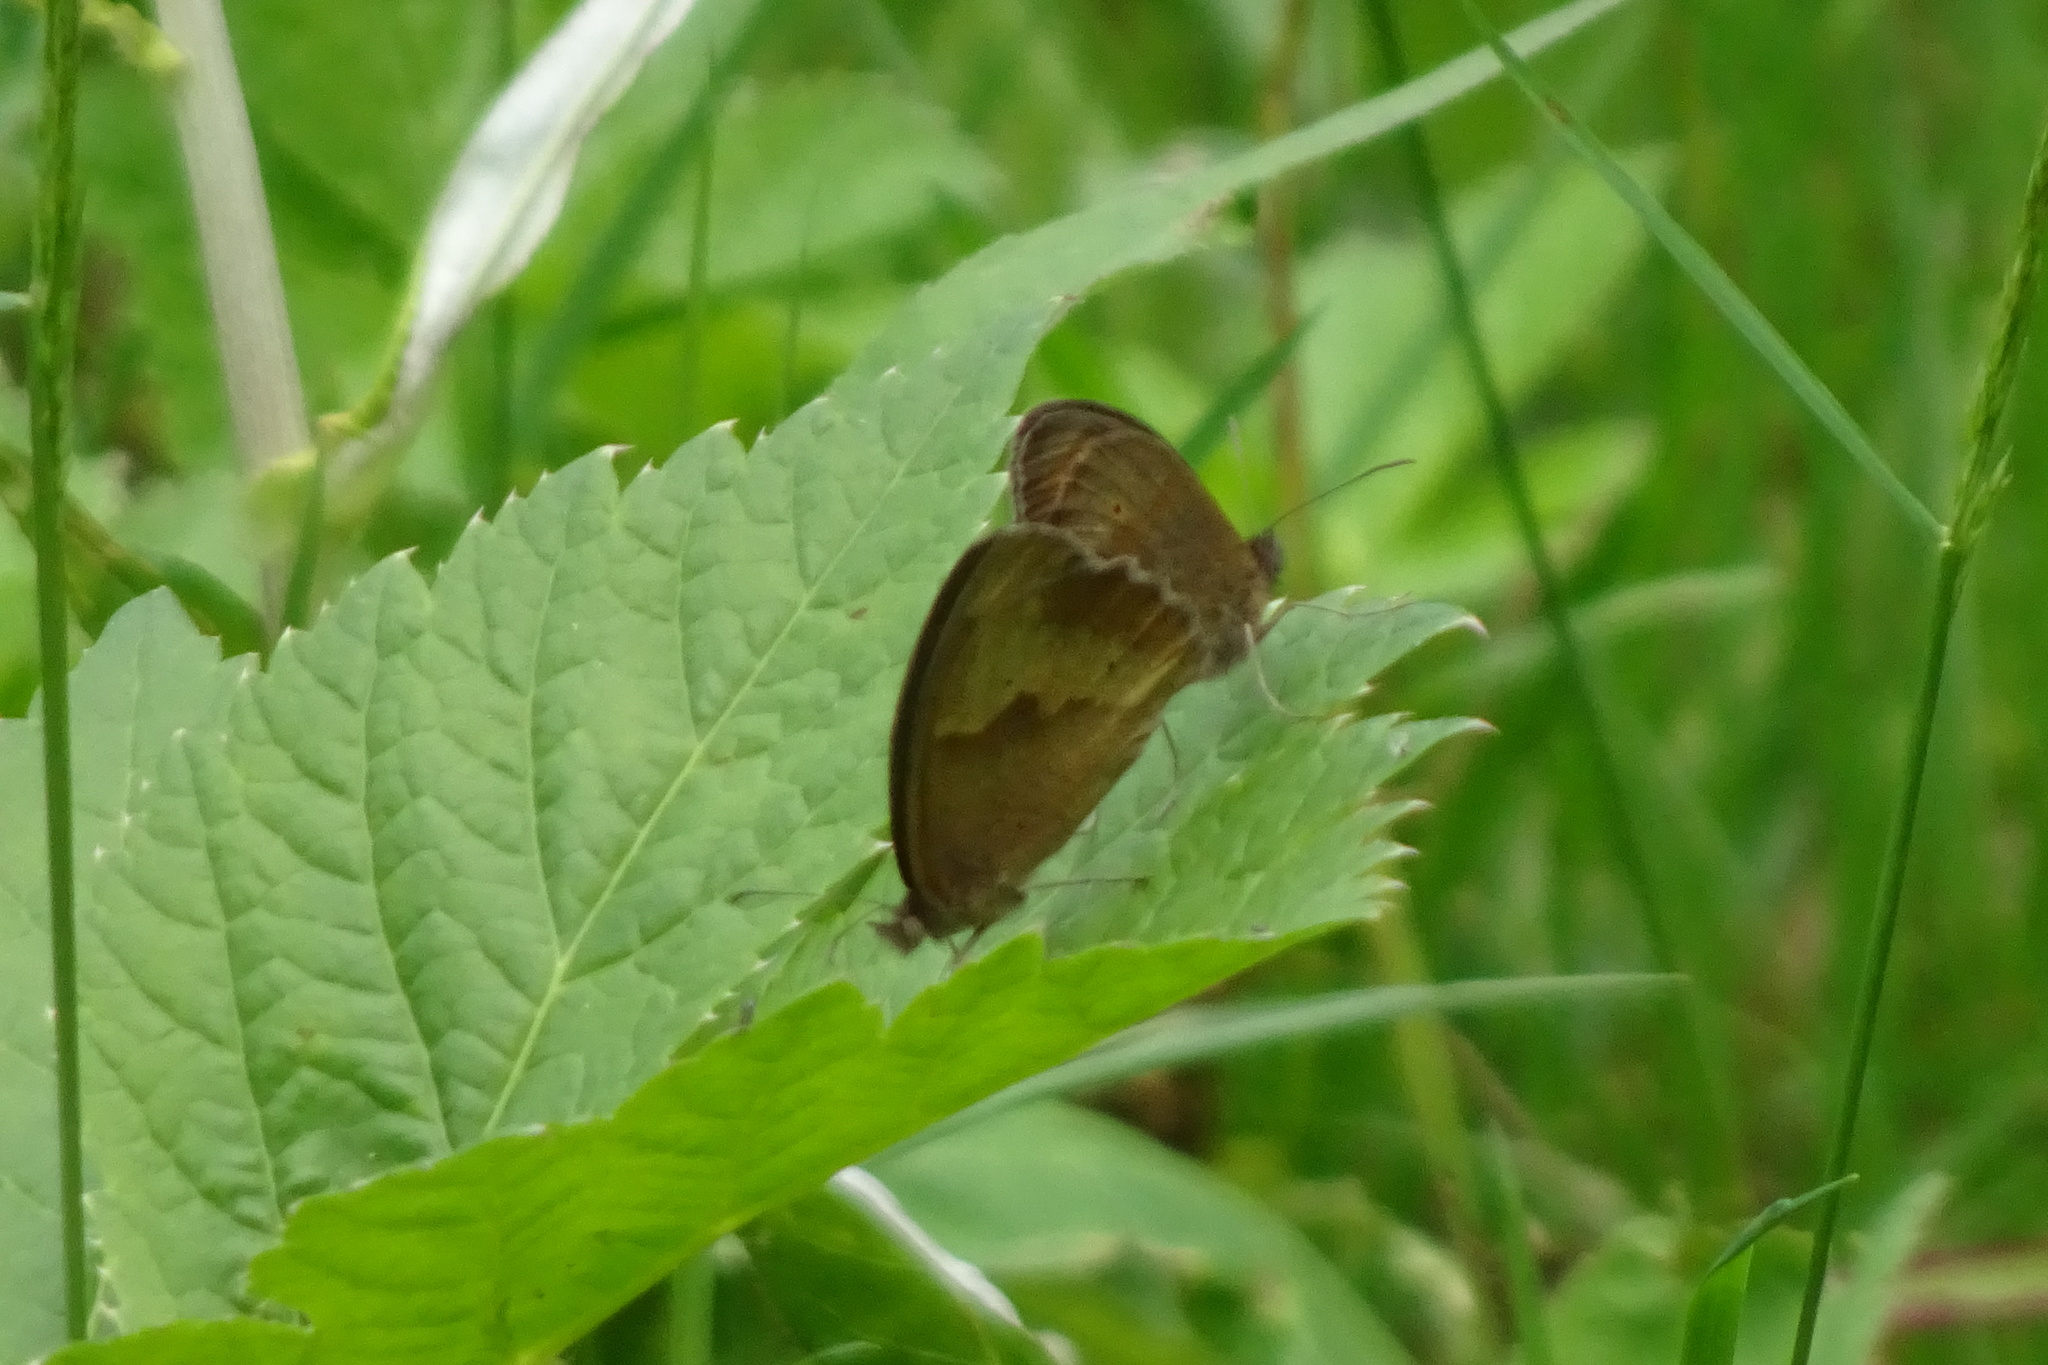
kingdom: Animalia
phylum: Arthropoda
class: Insecta
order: Lepidoptera
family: Nymphalidae
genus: Maniola
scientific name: Maniola jurtina
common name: Meadow brown
